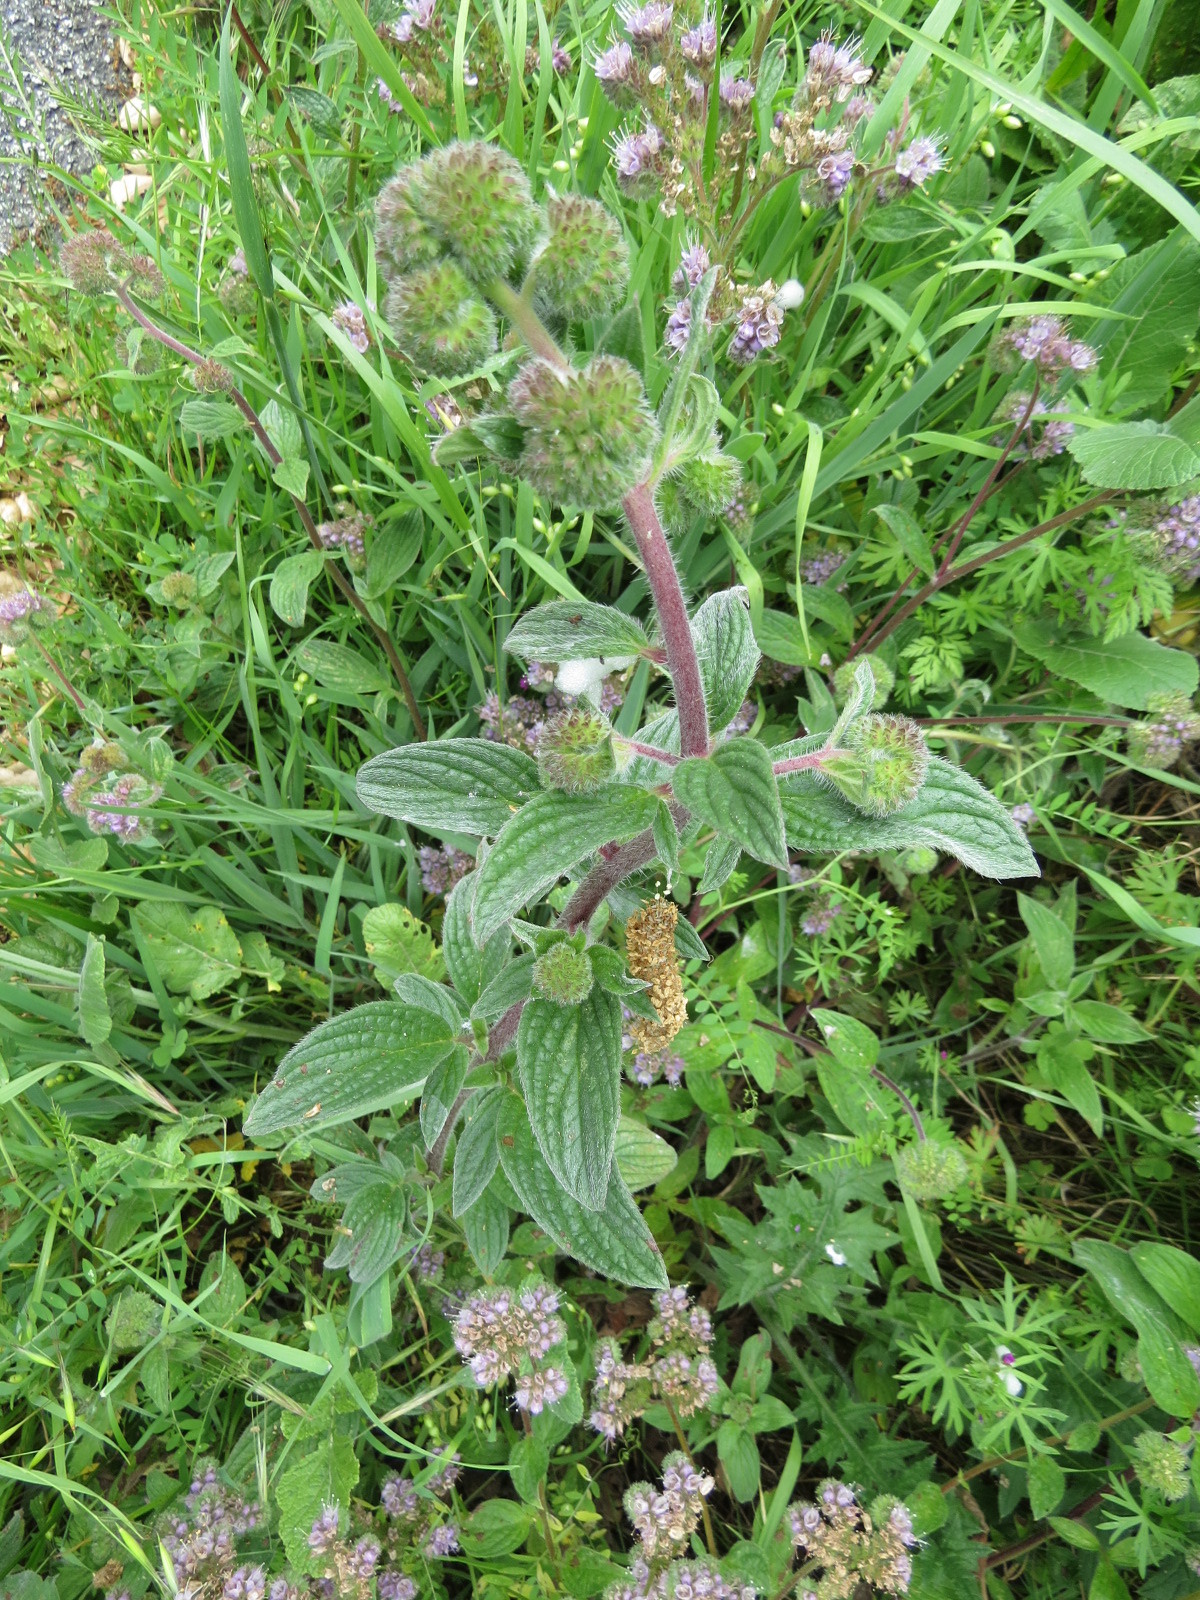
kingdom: Plantae
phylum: Tracheophyta
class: Magnoliopsida
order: Boraginales
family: Hydrophyllaceae
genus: Phacelia
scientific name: Phacelia californica
